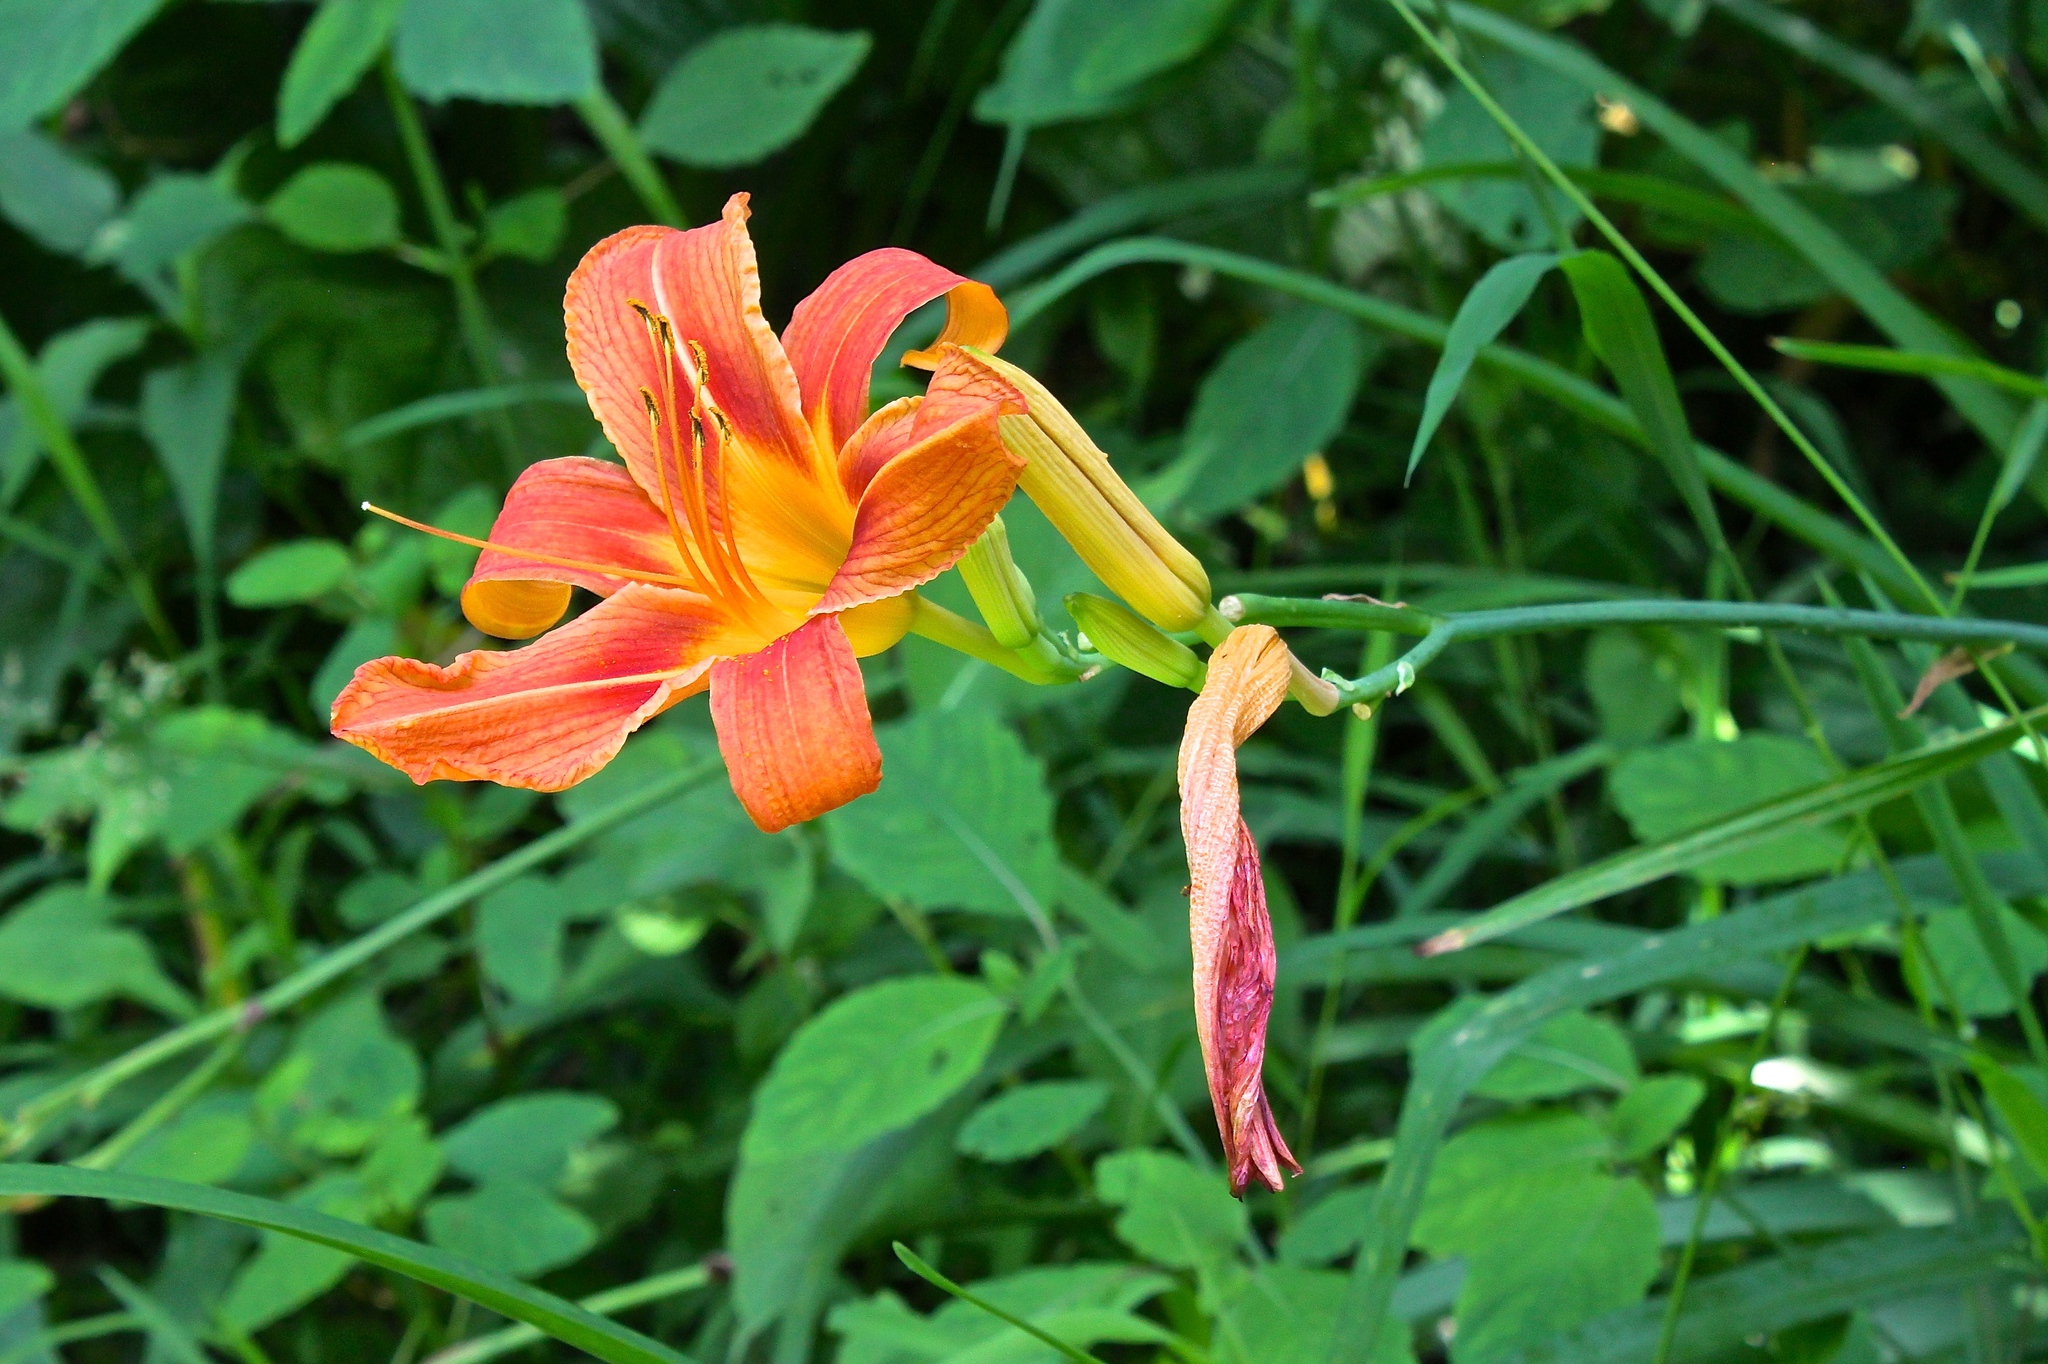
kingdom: Plantae
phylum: Tracheophyta
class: Liliopsida
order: Asparagales
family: Asphodelaceae
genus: Hemerocallis
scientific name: Hemerocallis fulva
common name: Orange day-lily
